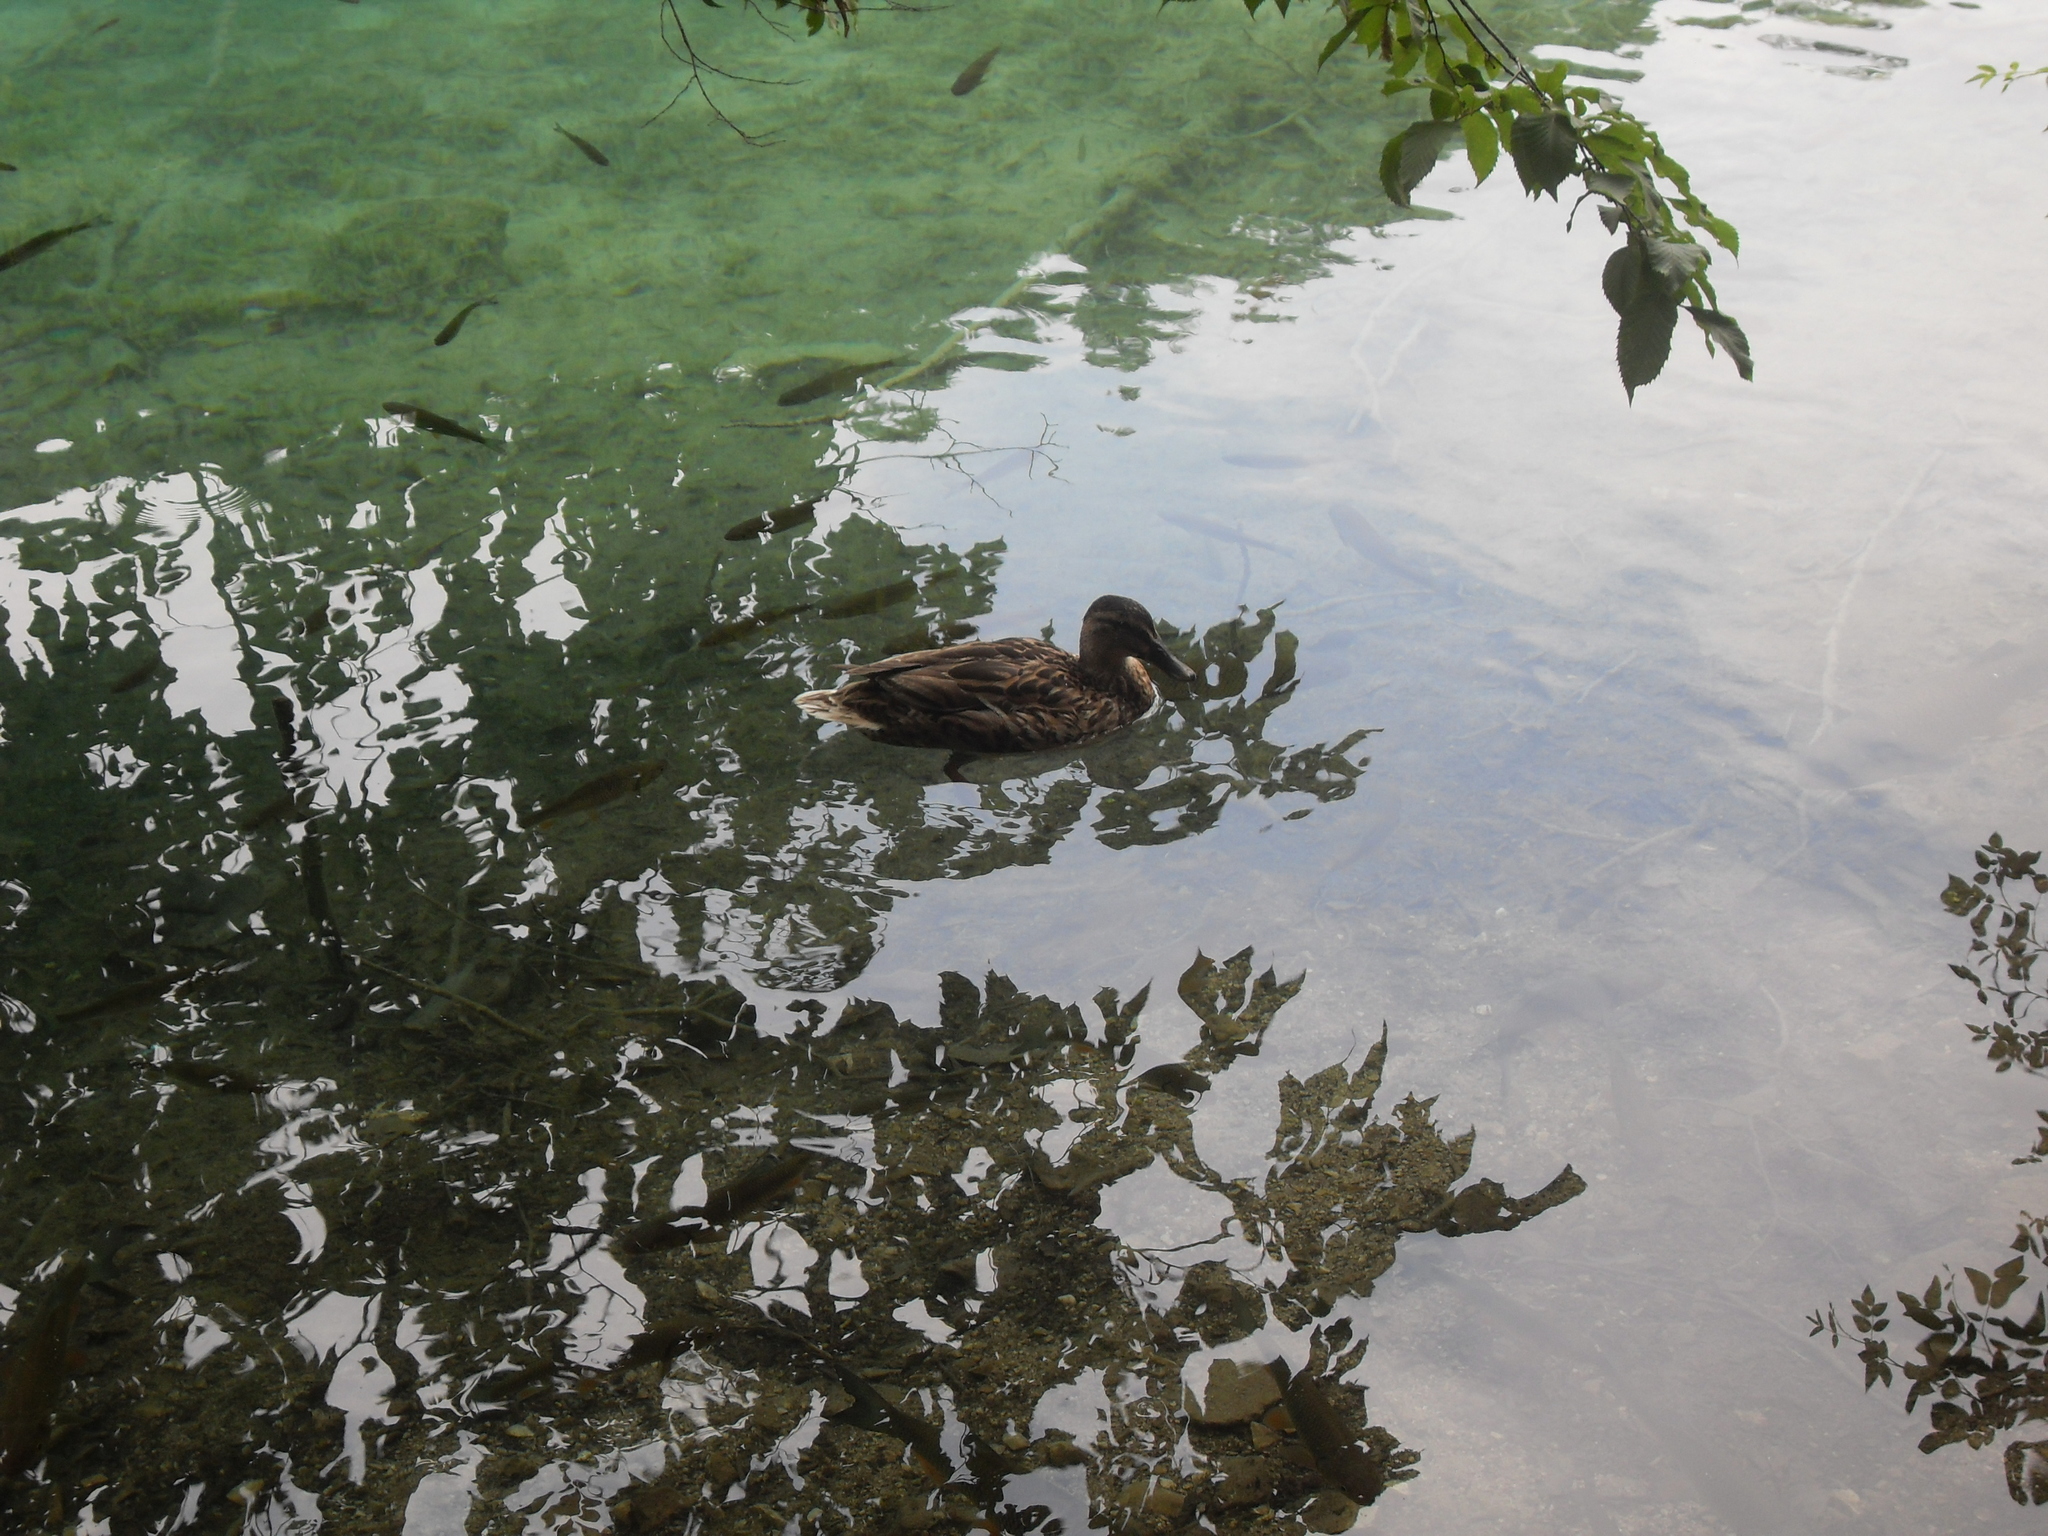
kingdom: Animalia
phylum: Chordata
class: Aves
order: Anseriformes
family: Anatidae
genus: Anas
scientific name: Anas platyrhynchos
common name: Mallard
